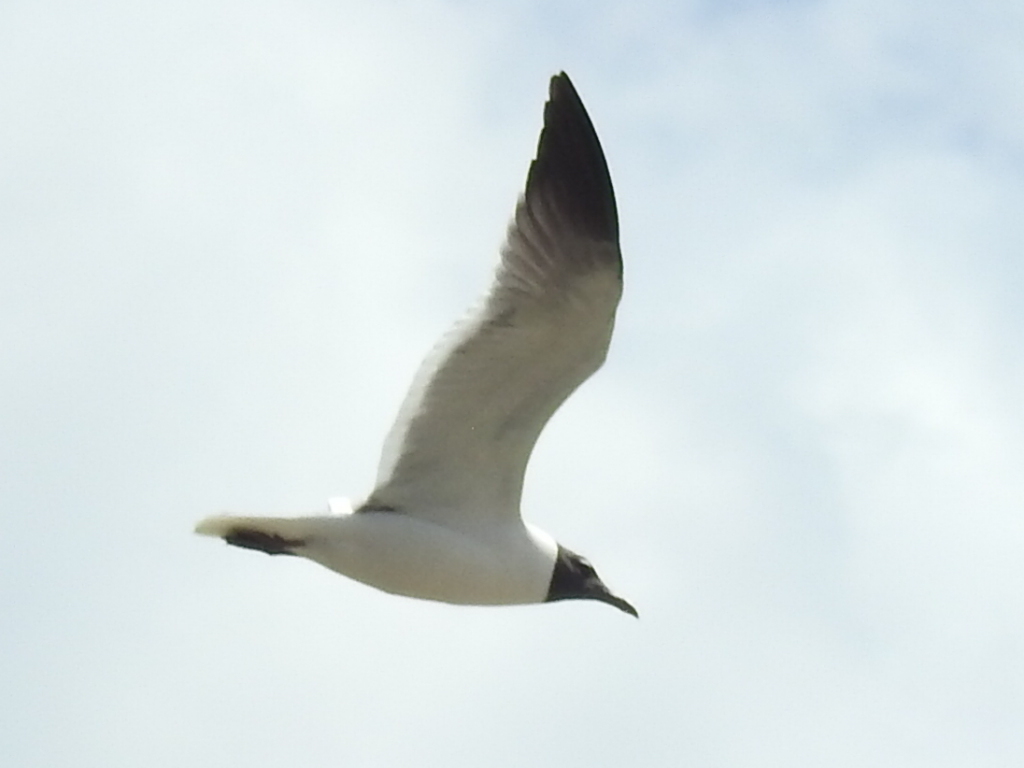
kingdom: Animalia
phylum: Chordata
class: Aves
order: Charadriiformes
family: Laridae
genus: Leucophaeus
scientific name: Leucophaeus atricilla
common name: Laughing gull
